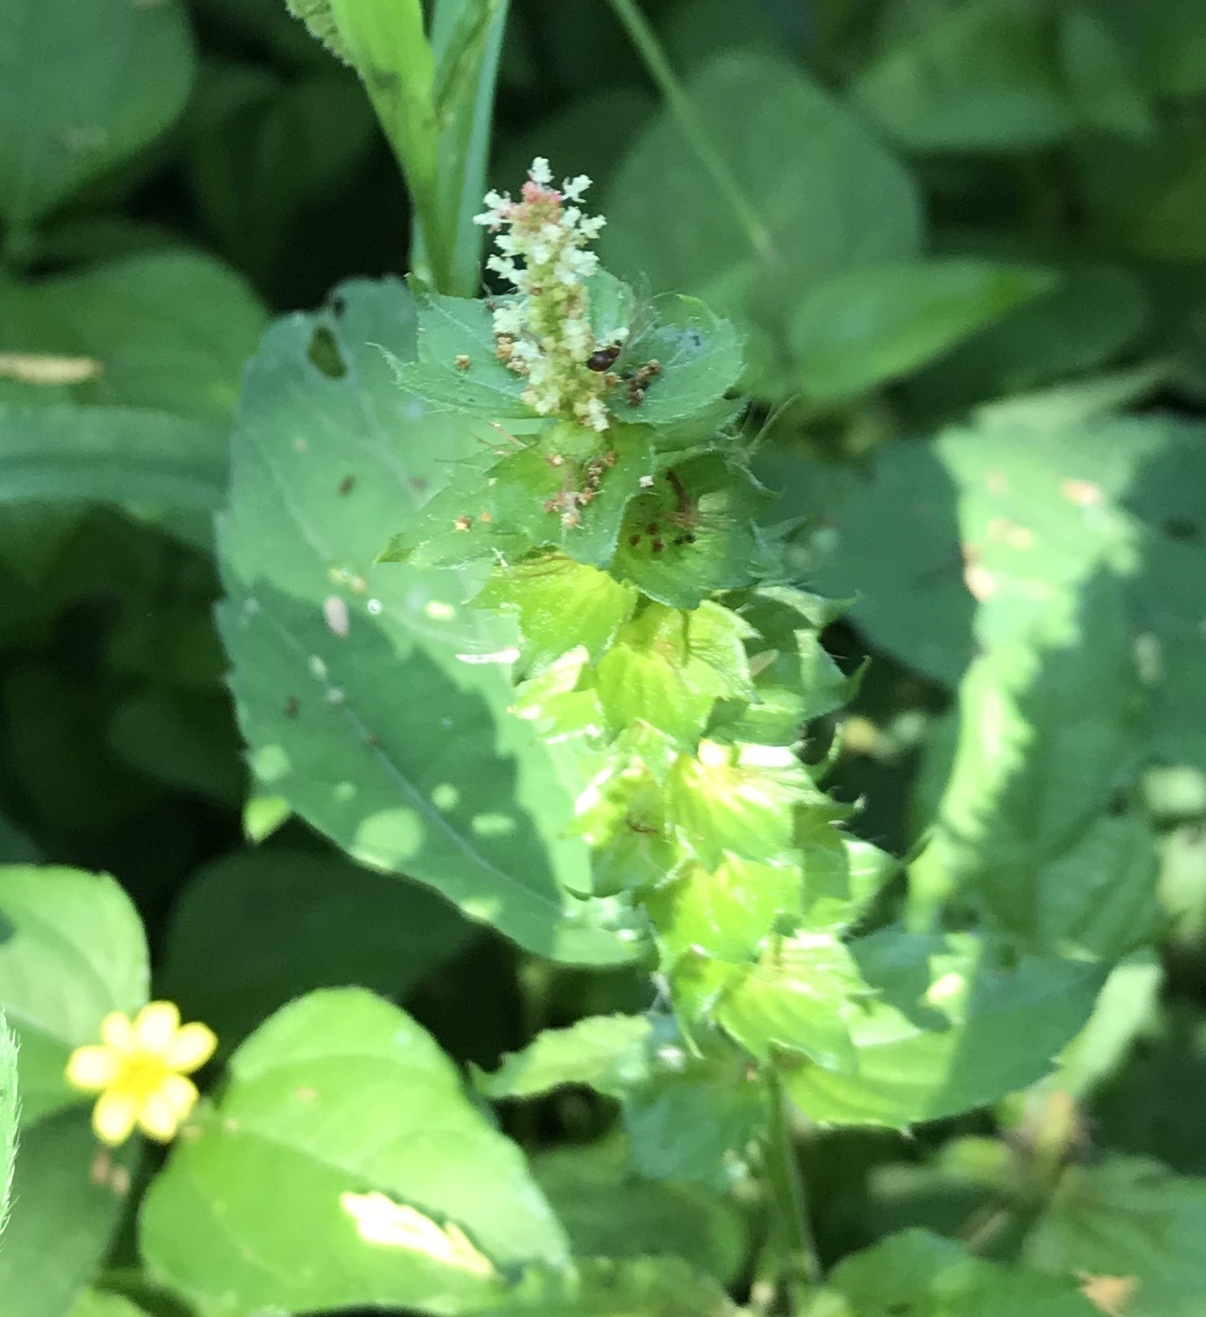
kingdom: Plantae
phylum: Tracheophyta
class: Magnoliopsida
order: Malpighiales
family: Euphorbiaceae
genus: Acalypha
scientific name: Acalypha phleoides
